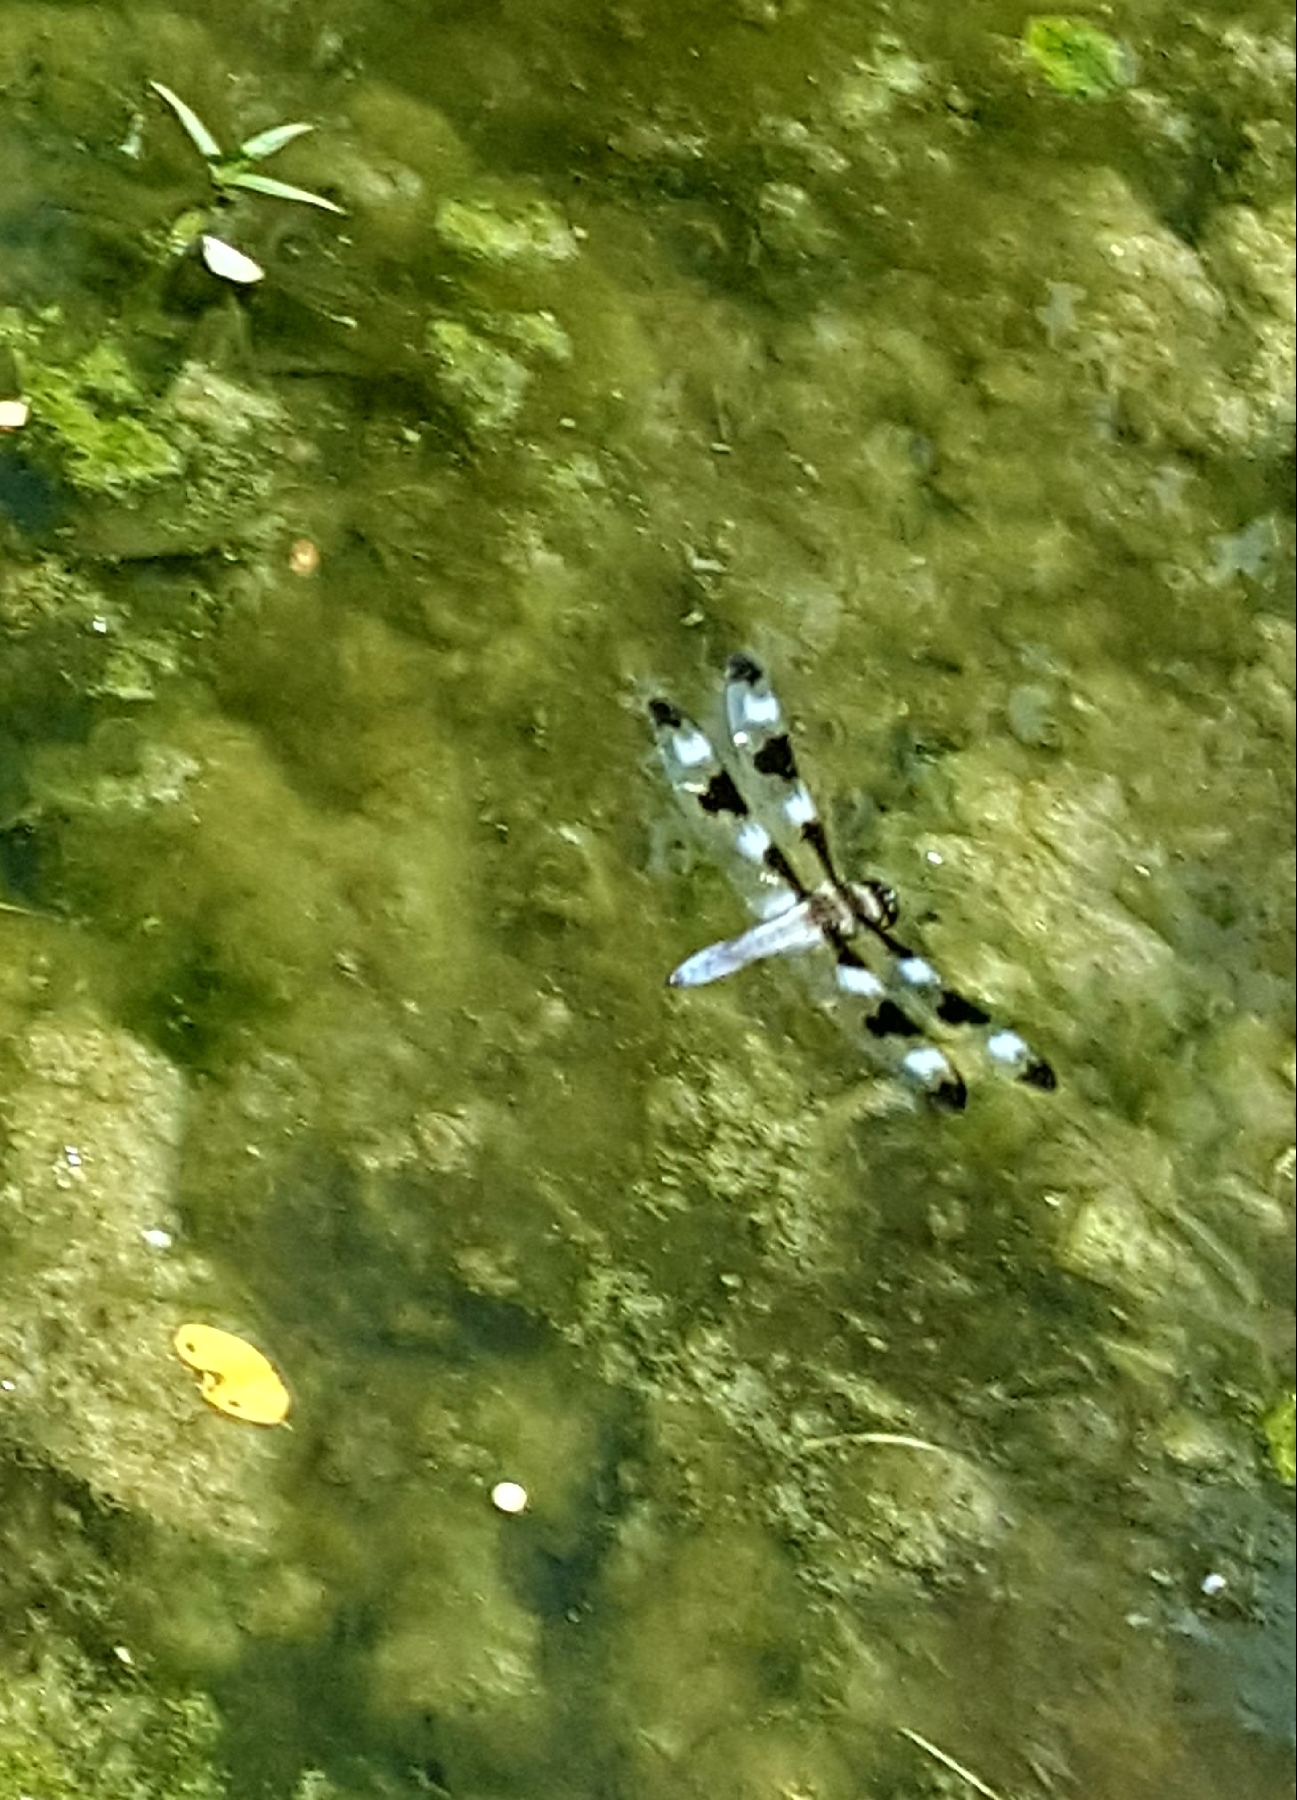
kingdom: Animalia
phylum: Arthropoda
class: Insecta
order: Odonata
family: Libellulidae
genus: Libellula
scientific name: Libellula pulchella
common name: Twelve-spotted skimmer
